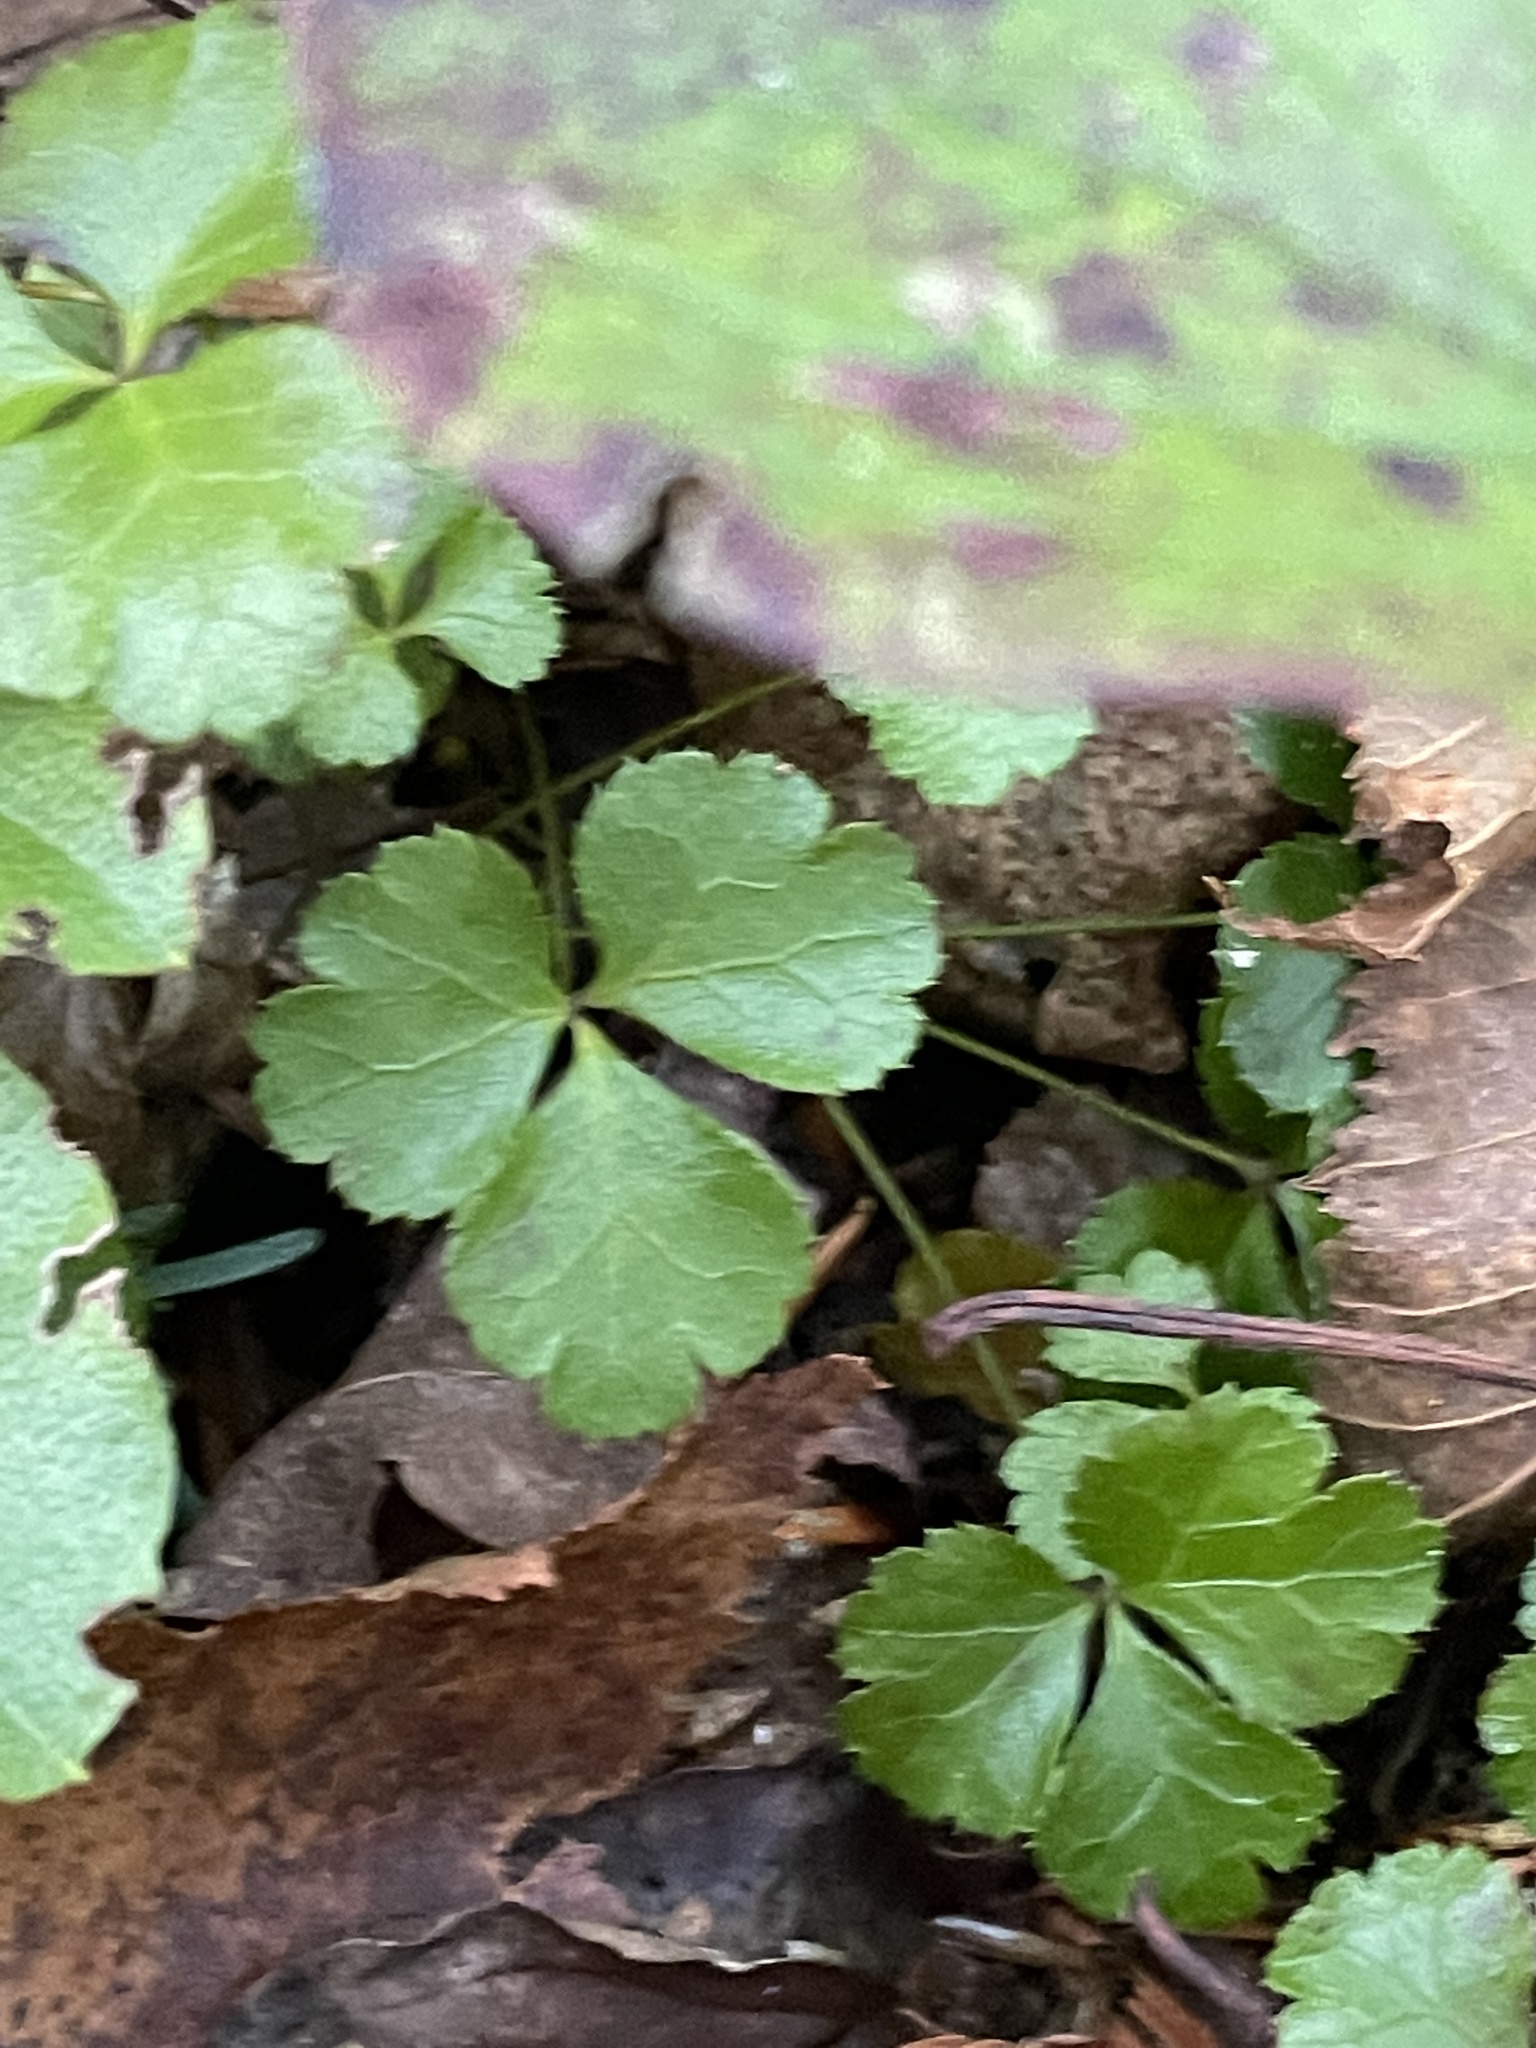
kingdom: Plantae
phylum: Tracheophyta
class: Magnoliopsida
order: Ranunculales
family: Ranunculaceae
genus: Coptis
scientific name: Coptis trifolia
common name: Canker-root
